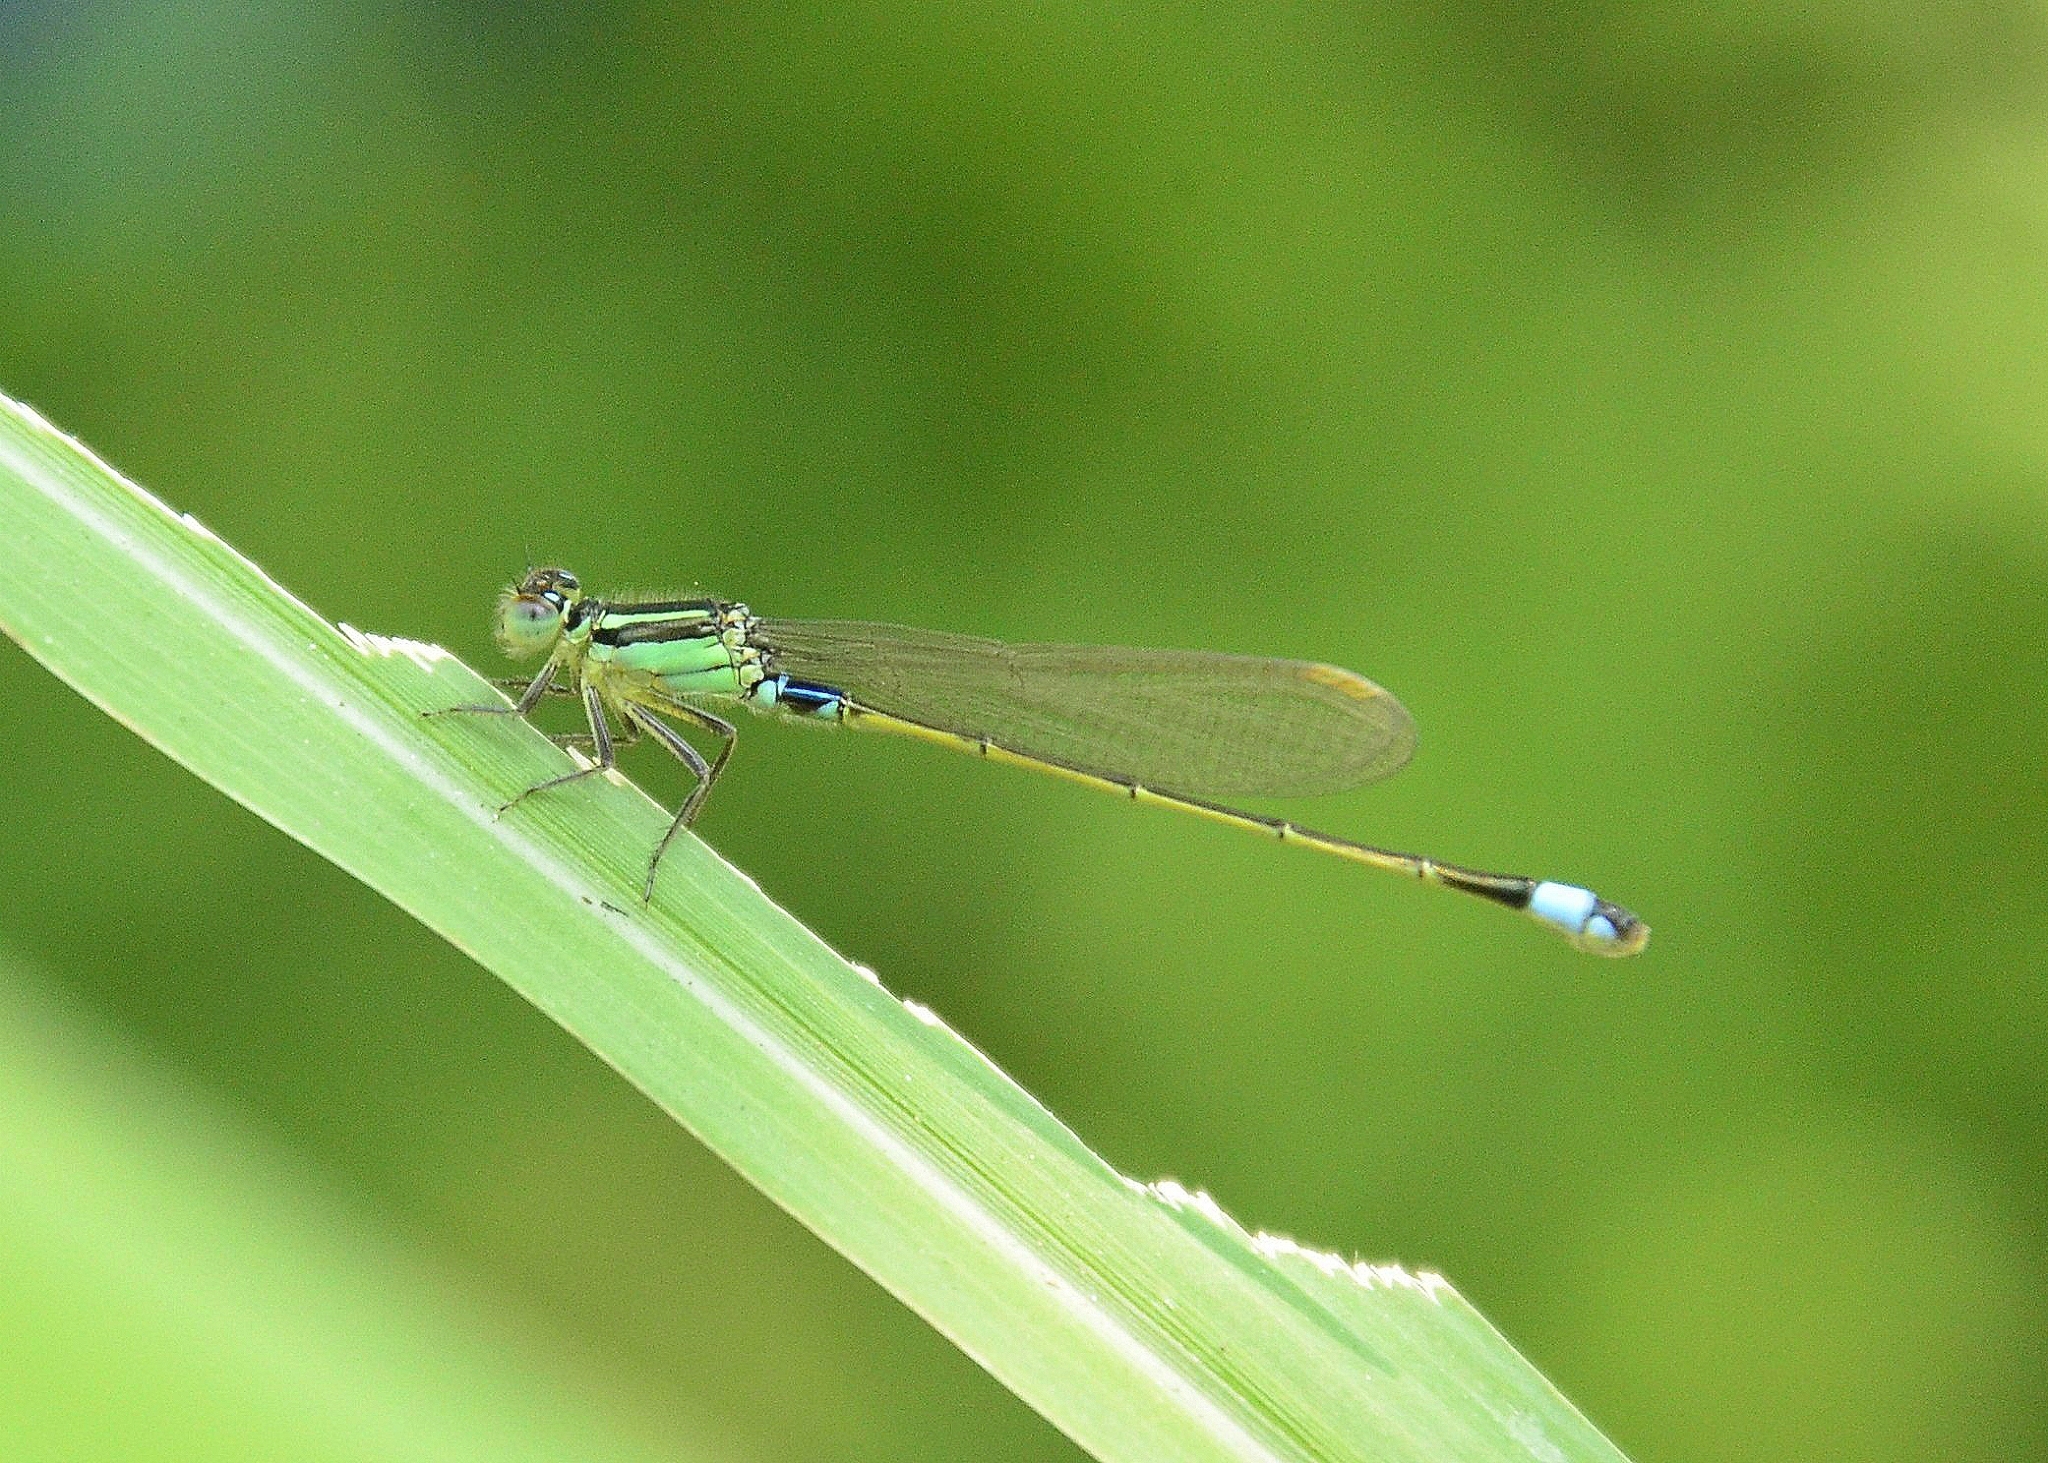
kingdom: Animalia
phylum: Arthropoda
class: Insecta
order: Odonata
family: Coenagrionidae
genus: Ischnura
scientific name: Ischnura senegalensis
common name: Tropical bluetail
